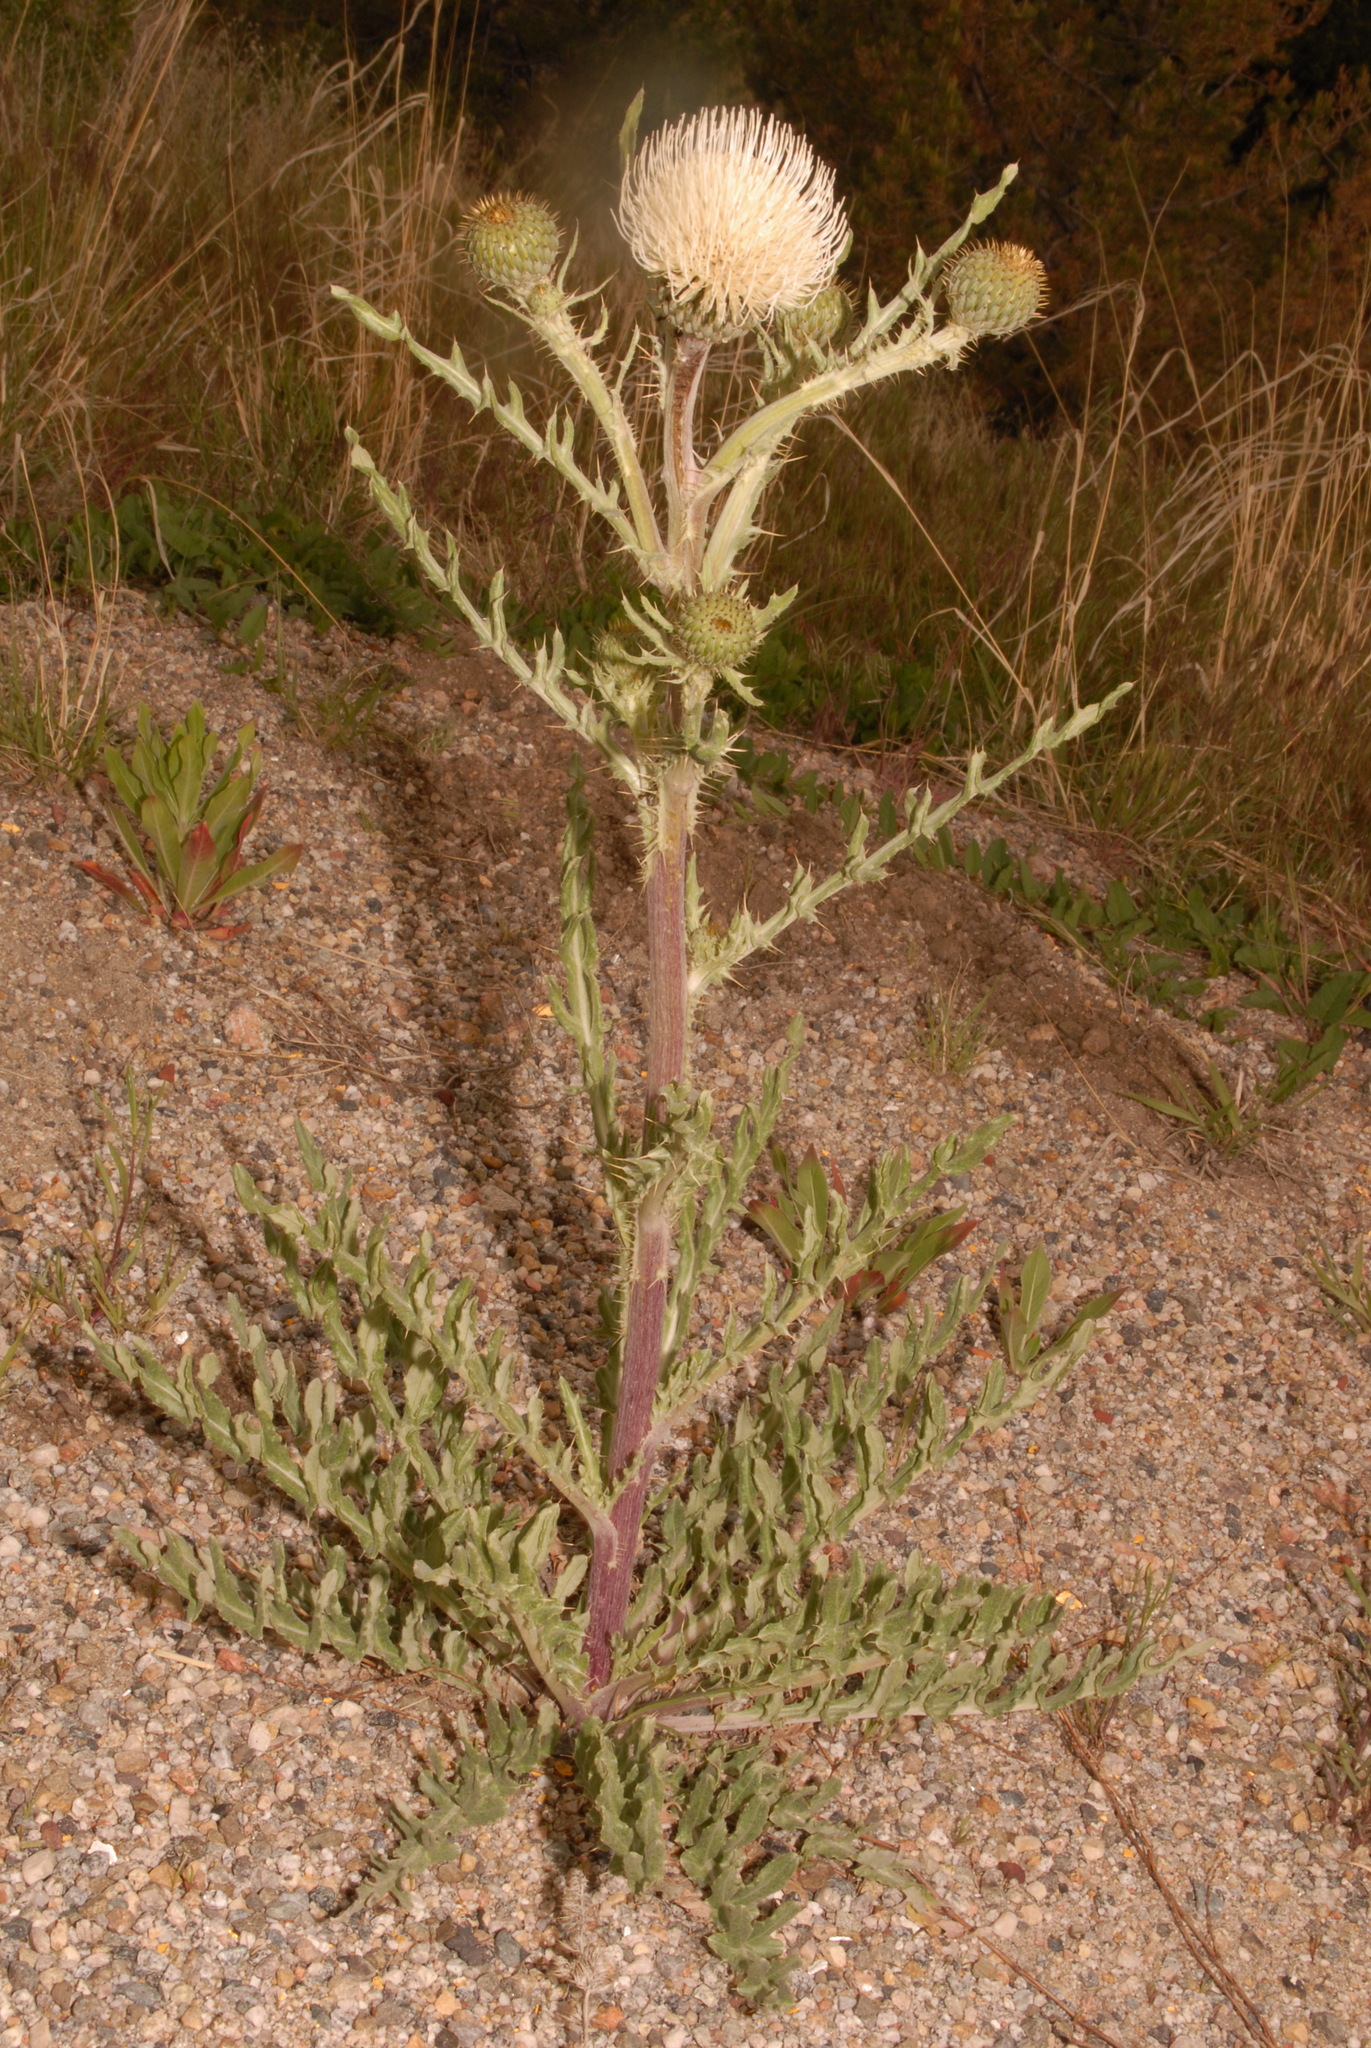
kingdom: Plantae
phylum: Tracheophyta
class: Magnoliopsida
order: Asterales
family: Asteraceae
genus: Cirsium
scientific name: Cirsium canescens
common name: Prairie thistle
